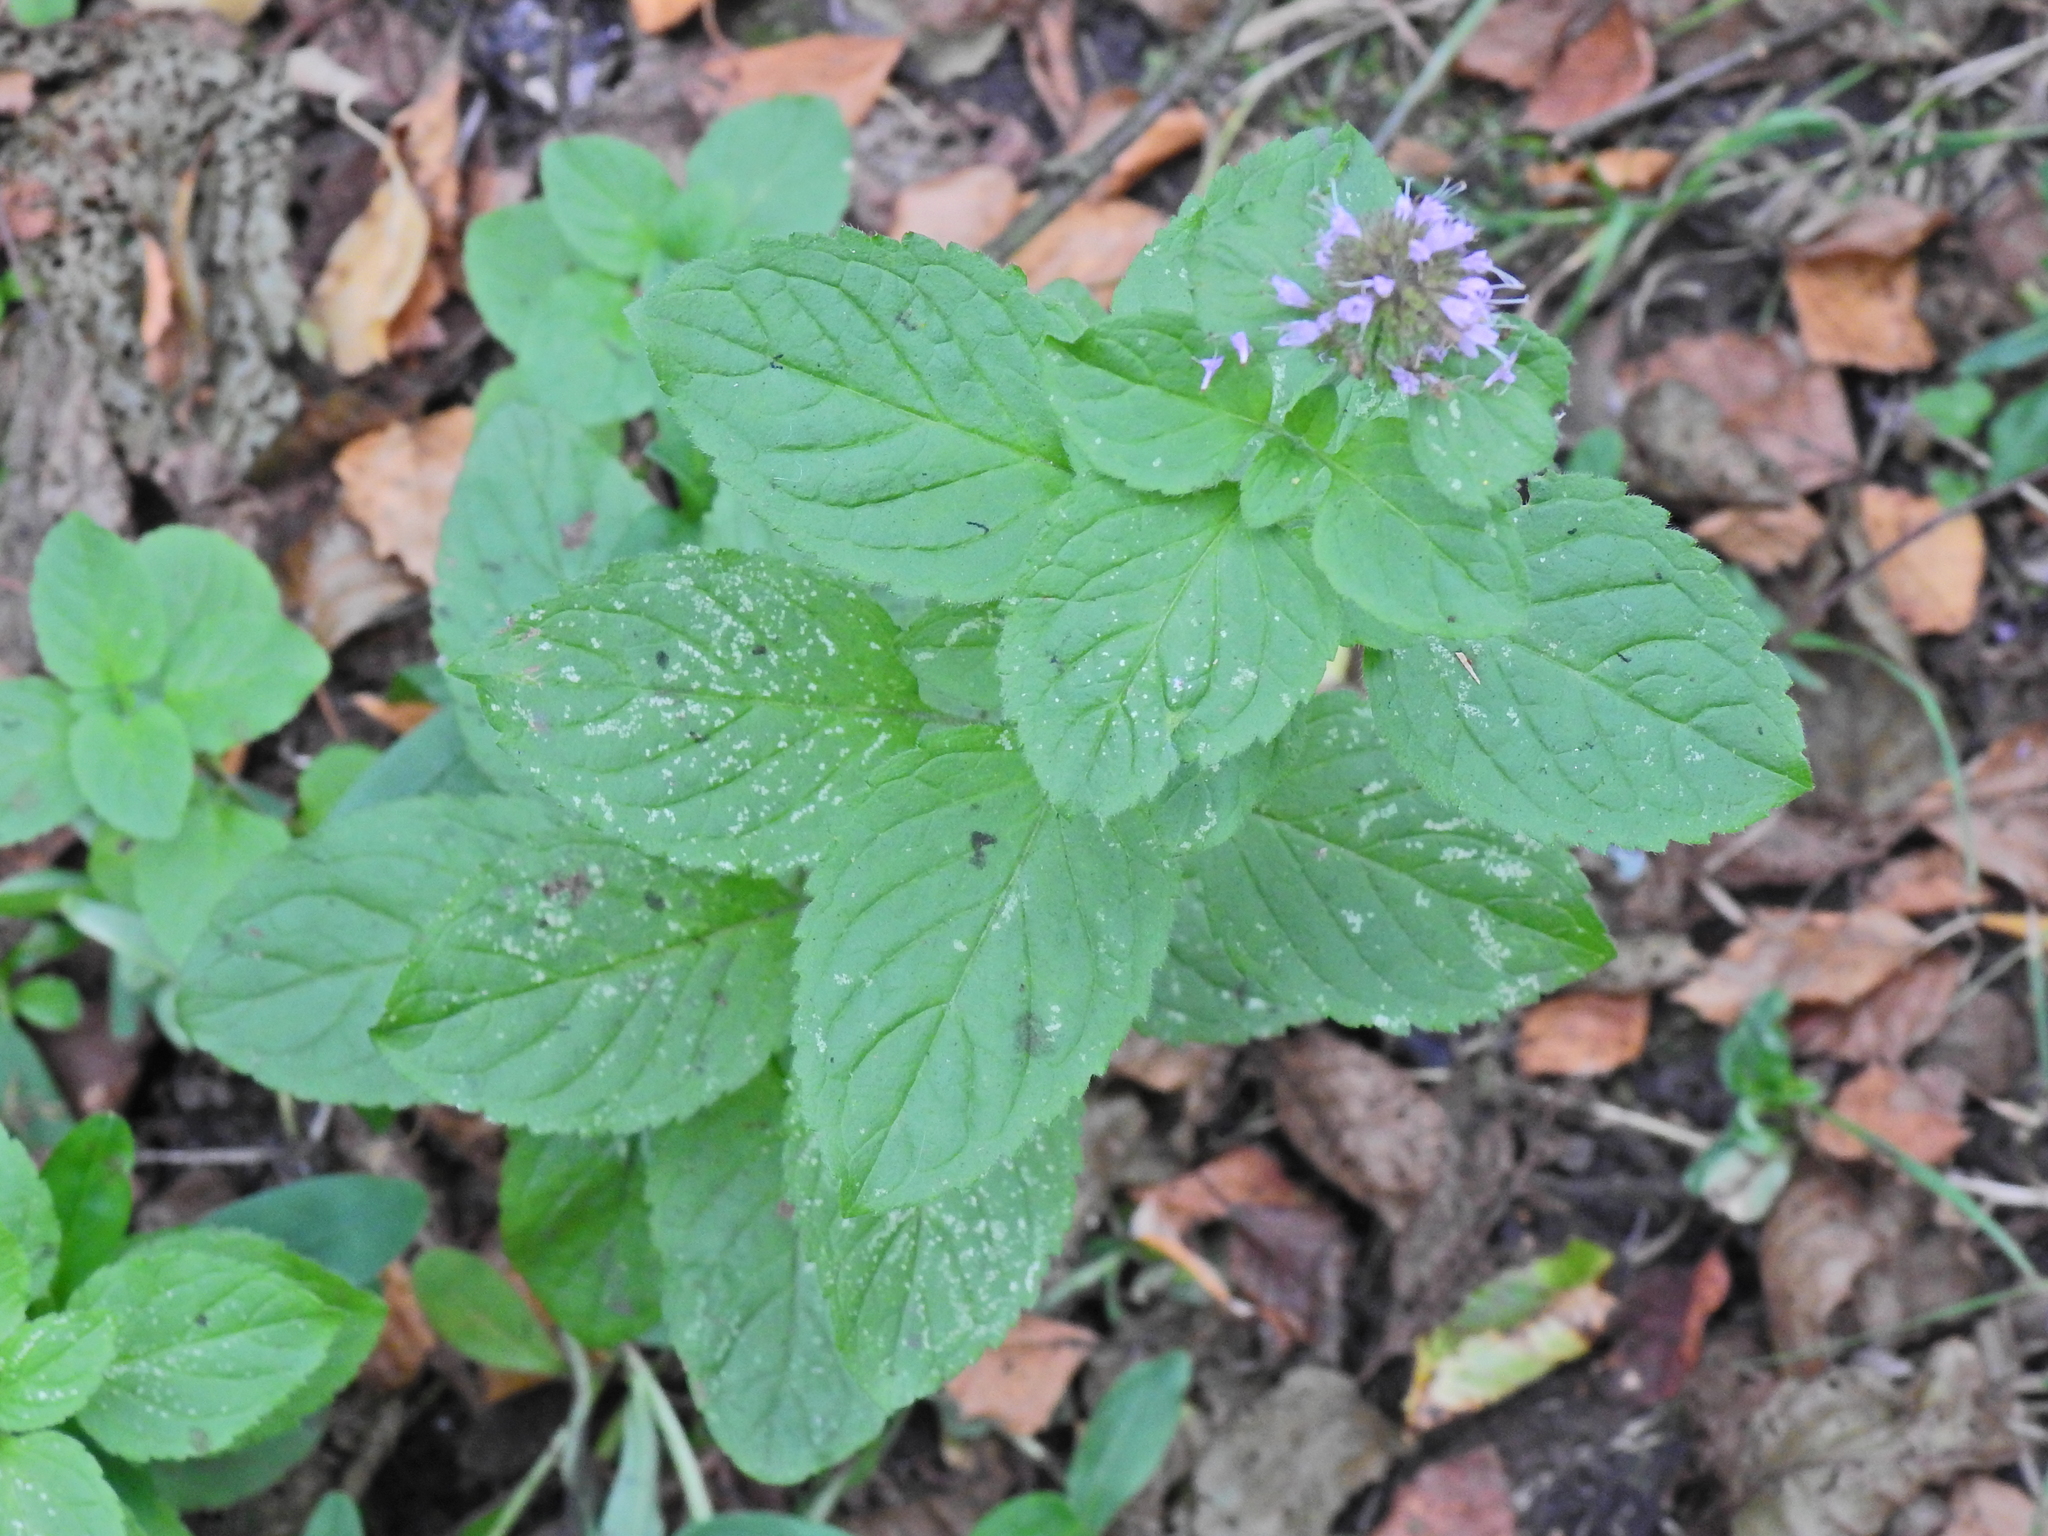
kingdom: Plantae
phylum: Tracheophyta
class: Magnoliopsida
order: Lamiales
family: Lamiaceae
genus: Mentha
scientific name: Mentha aquatica
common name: Water mint
